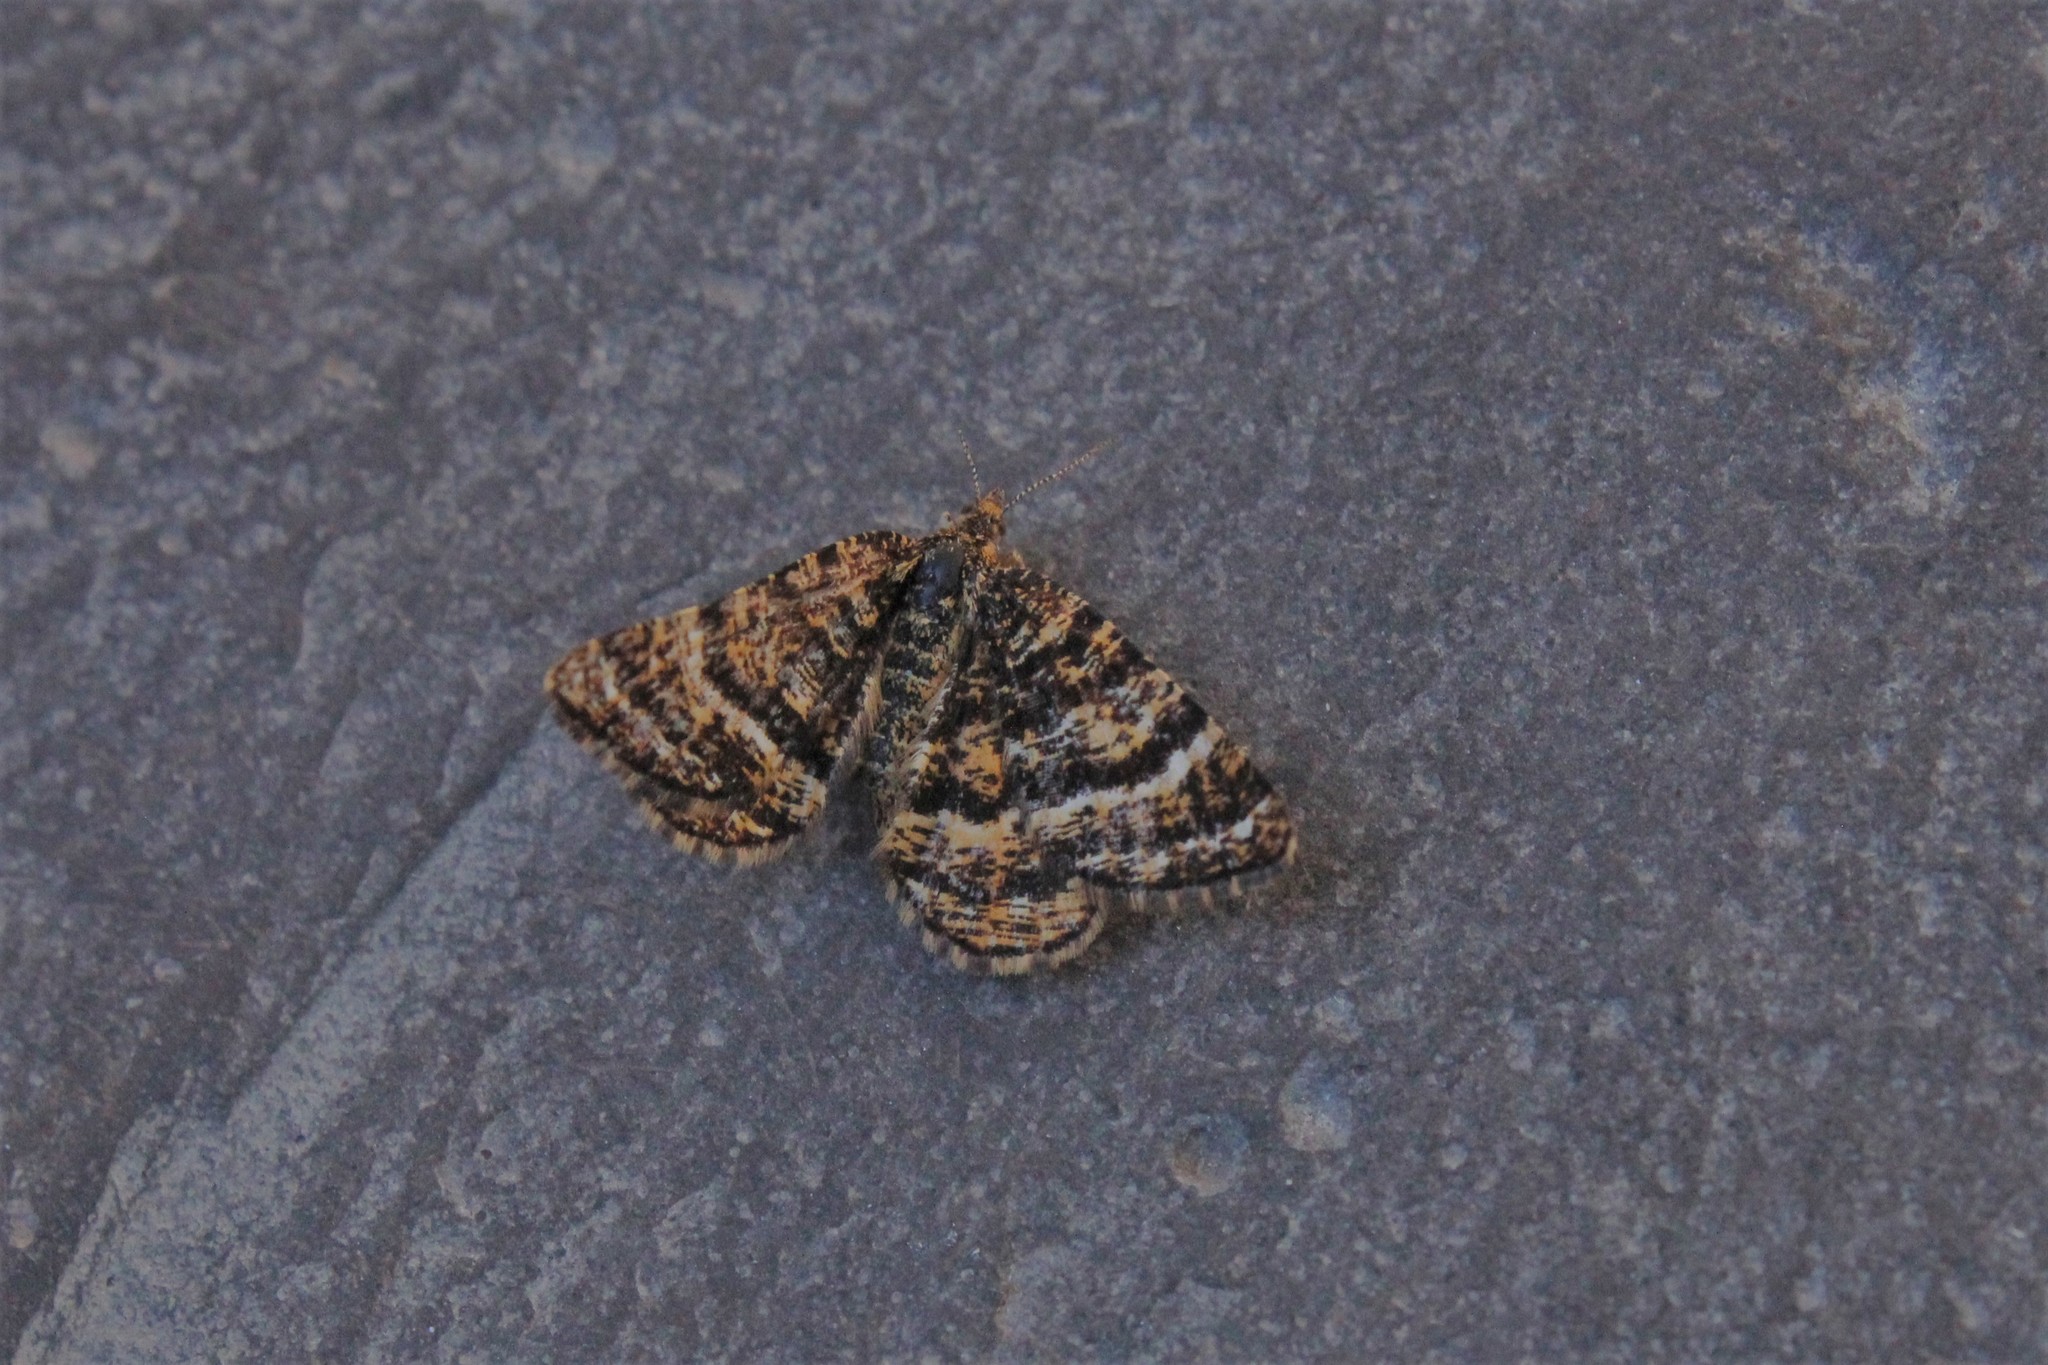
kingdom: Animalia
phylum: Arthropoda
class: Insecta
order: Lepidoptera
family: Geometridae
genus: Macaria
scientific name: Macaria truncataria
